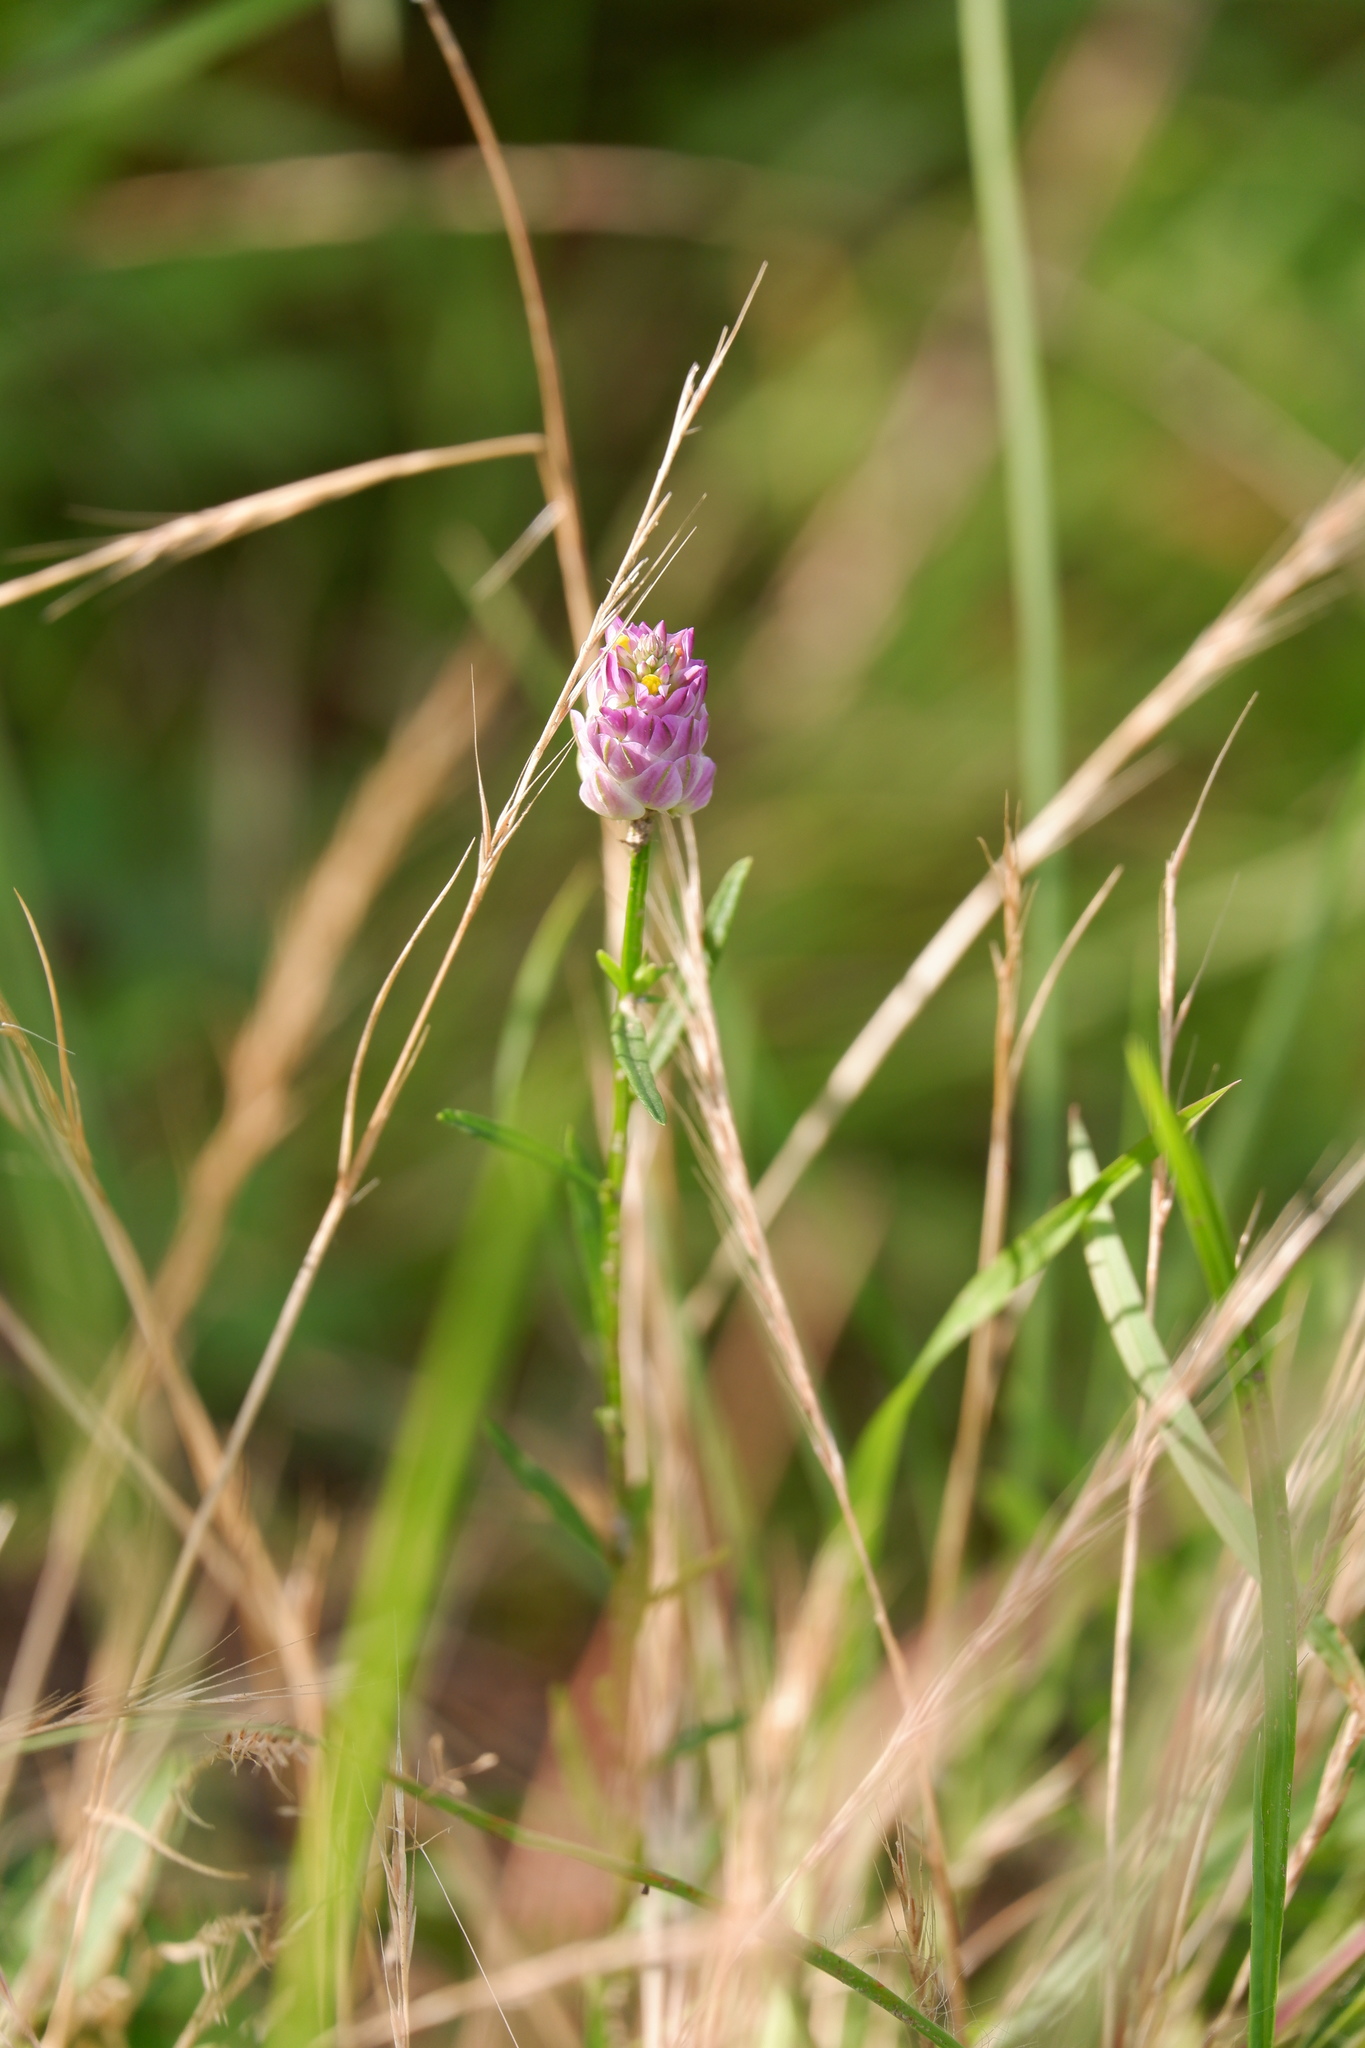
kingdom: Plantae
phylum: Tracheophyta
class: Magnoliopsida
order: Fabales
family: Polygalaceae
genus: Polygala
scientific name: Polygala sanguinea
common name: Blood milkwort
